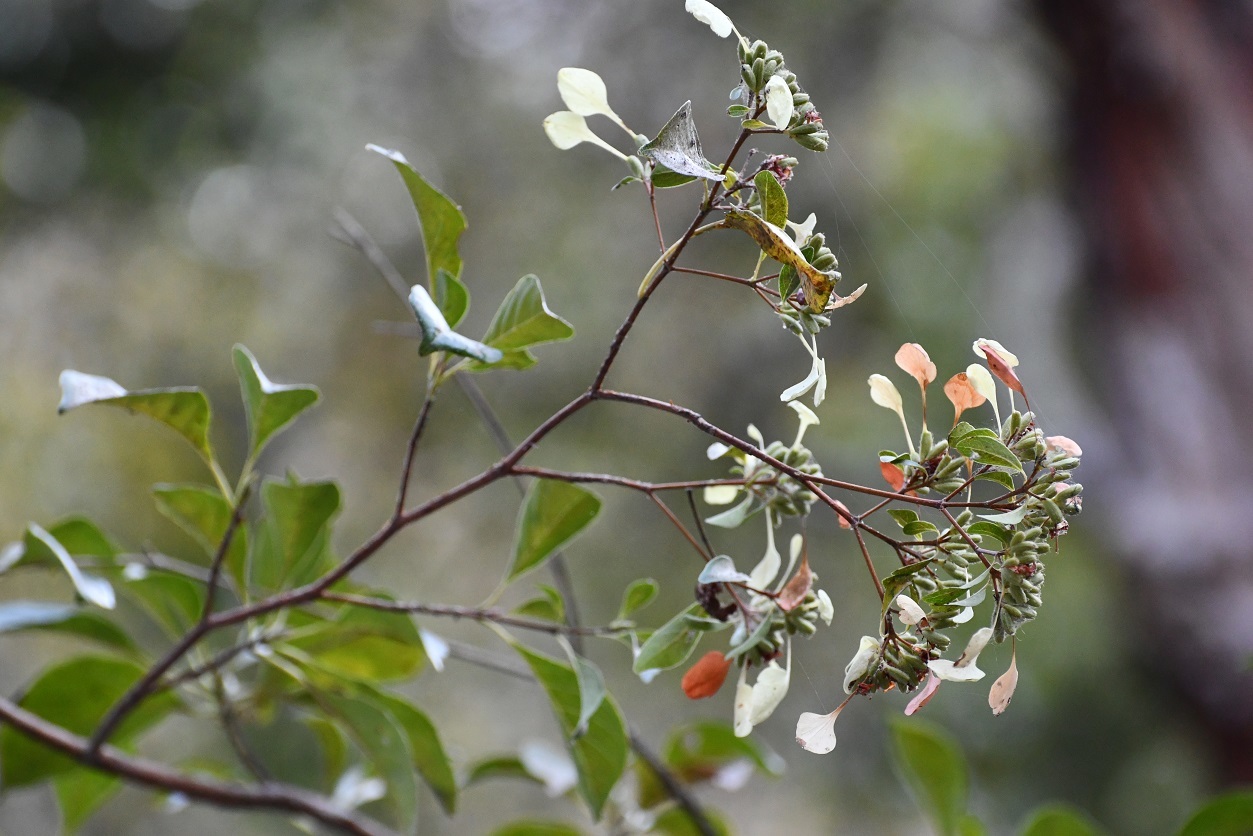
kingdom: Plantae
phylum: Tracheophyta
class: Magnoliopsida
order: Gentianales
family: Rubiaceae
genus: Calycophyllum
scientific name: Calycophyllum candidissimum
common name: Dagame
